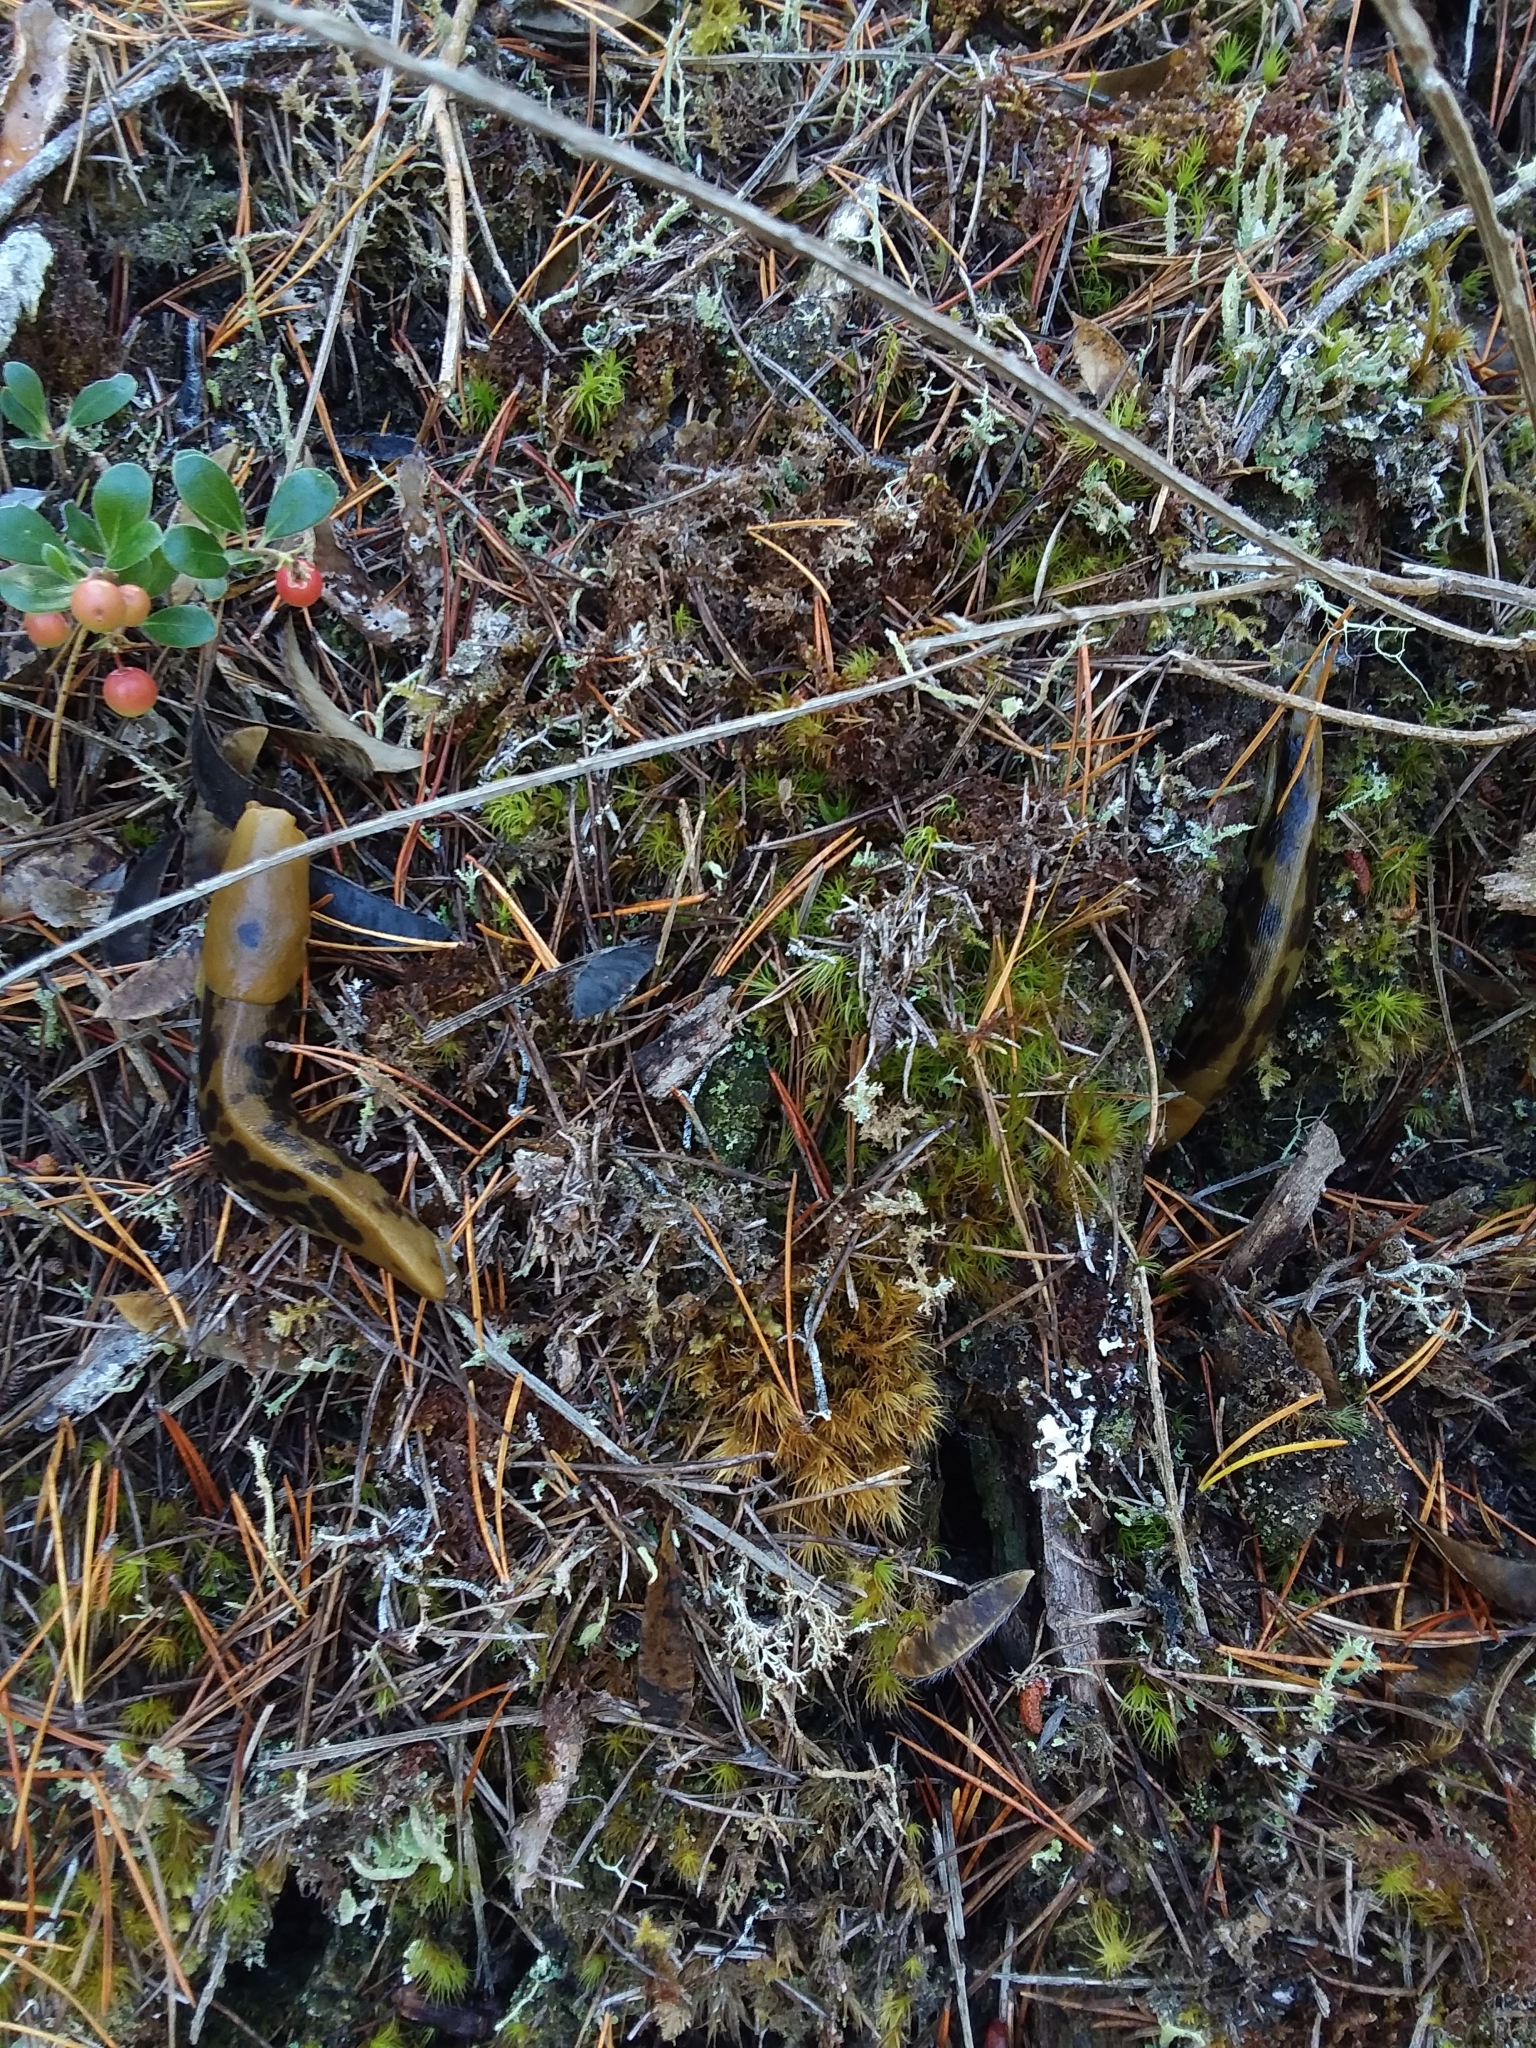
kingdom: Animalia
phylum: Mollusca
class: Gastropoda
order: Stylommatophora
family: Ariolimacidae
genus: Ariolimax
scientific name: Ariolimax columbianus
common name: Pacific banana slug
